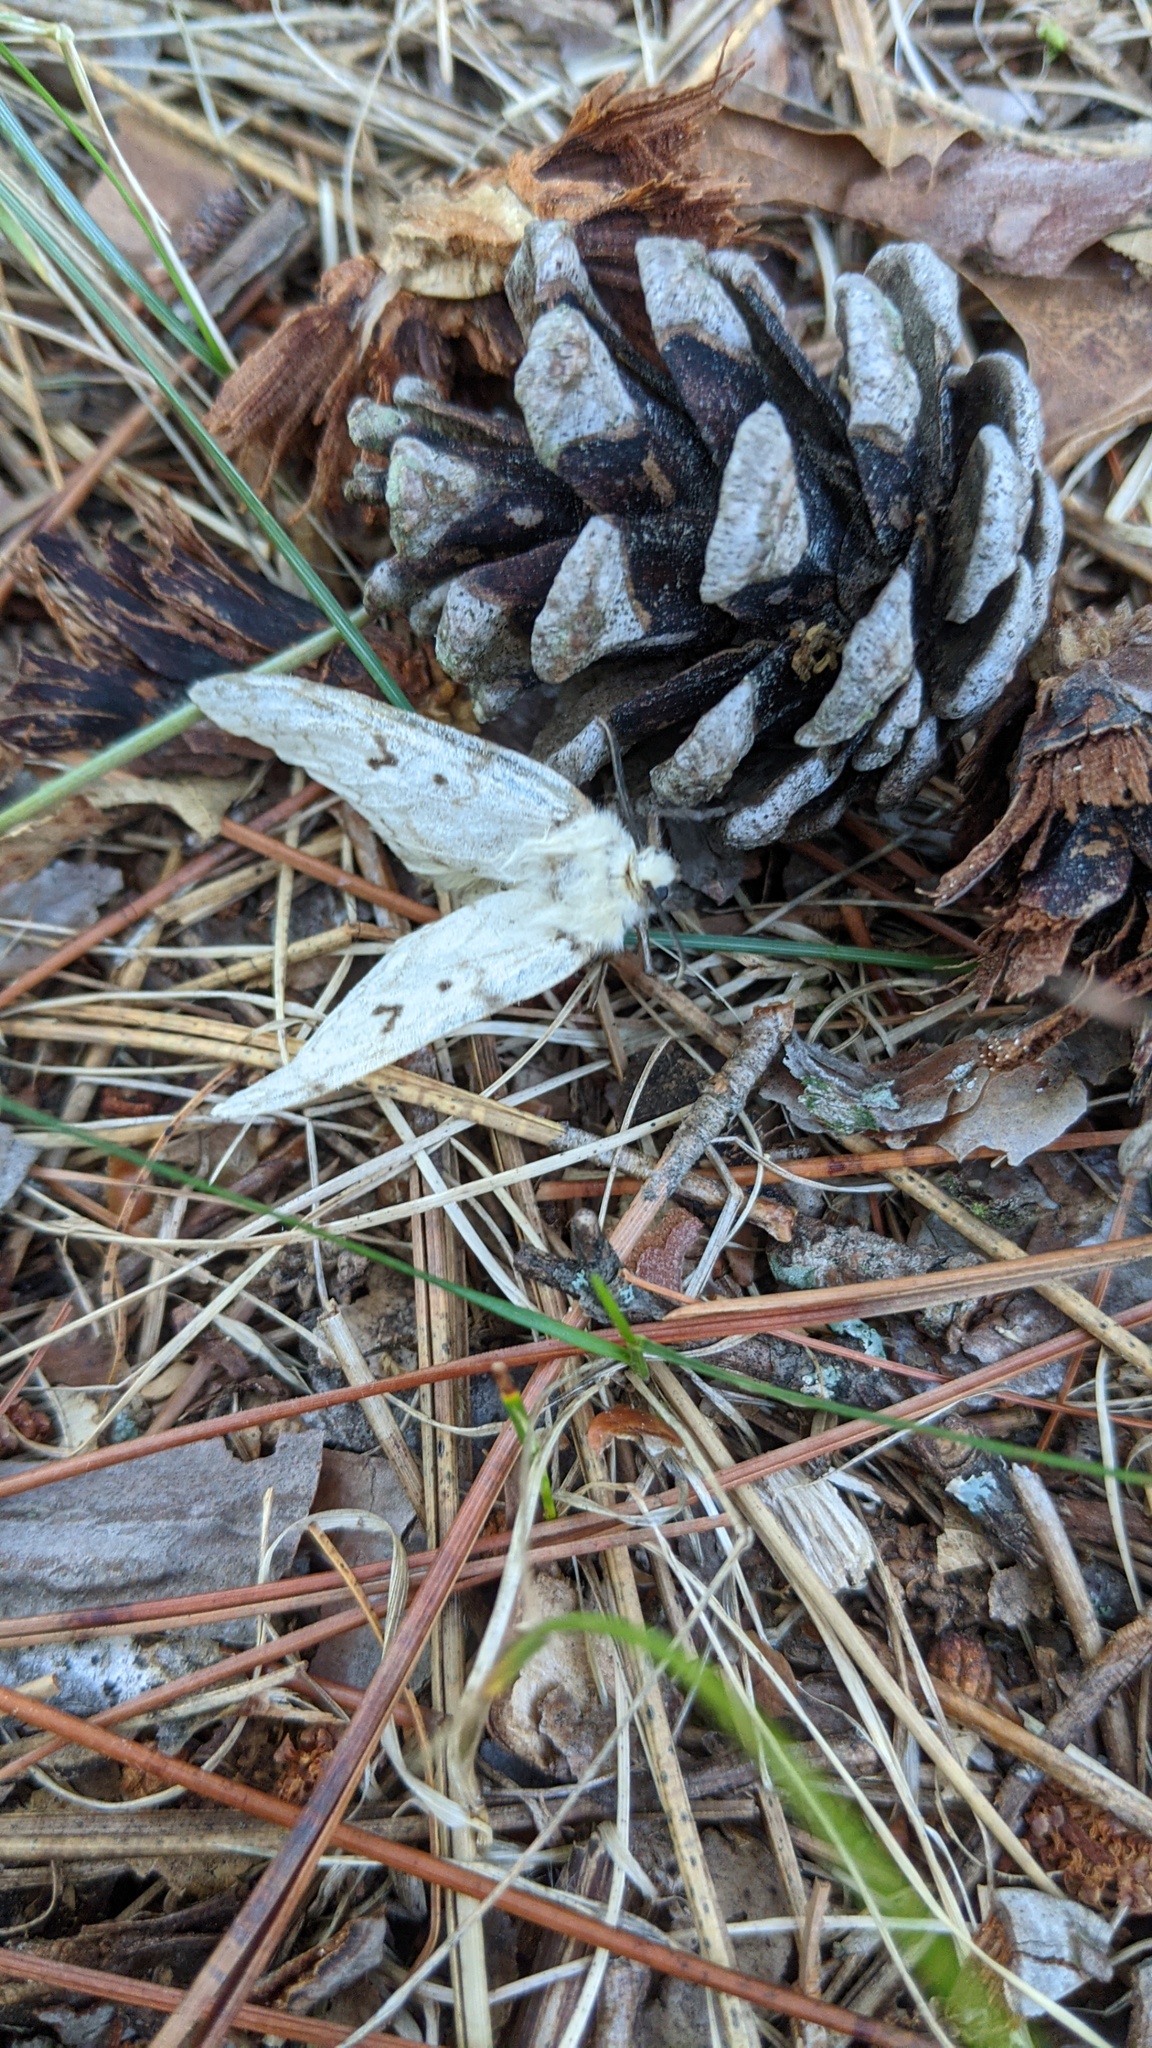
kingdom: Animalia
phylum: Arthropoda
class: Insecta
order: Lepidoptera
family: Erebidae
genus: Lymantria
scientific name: Lymantria dispar
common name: Gypsy moth
